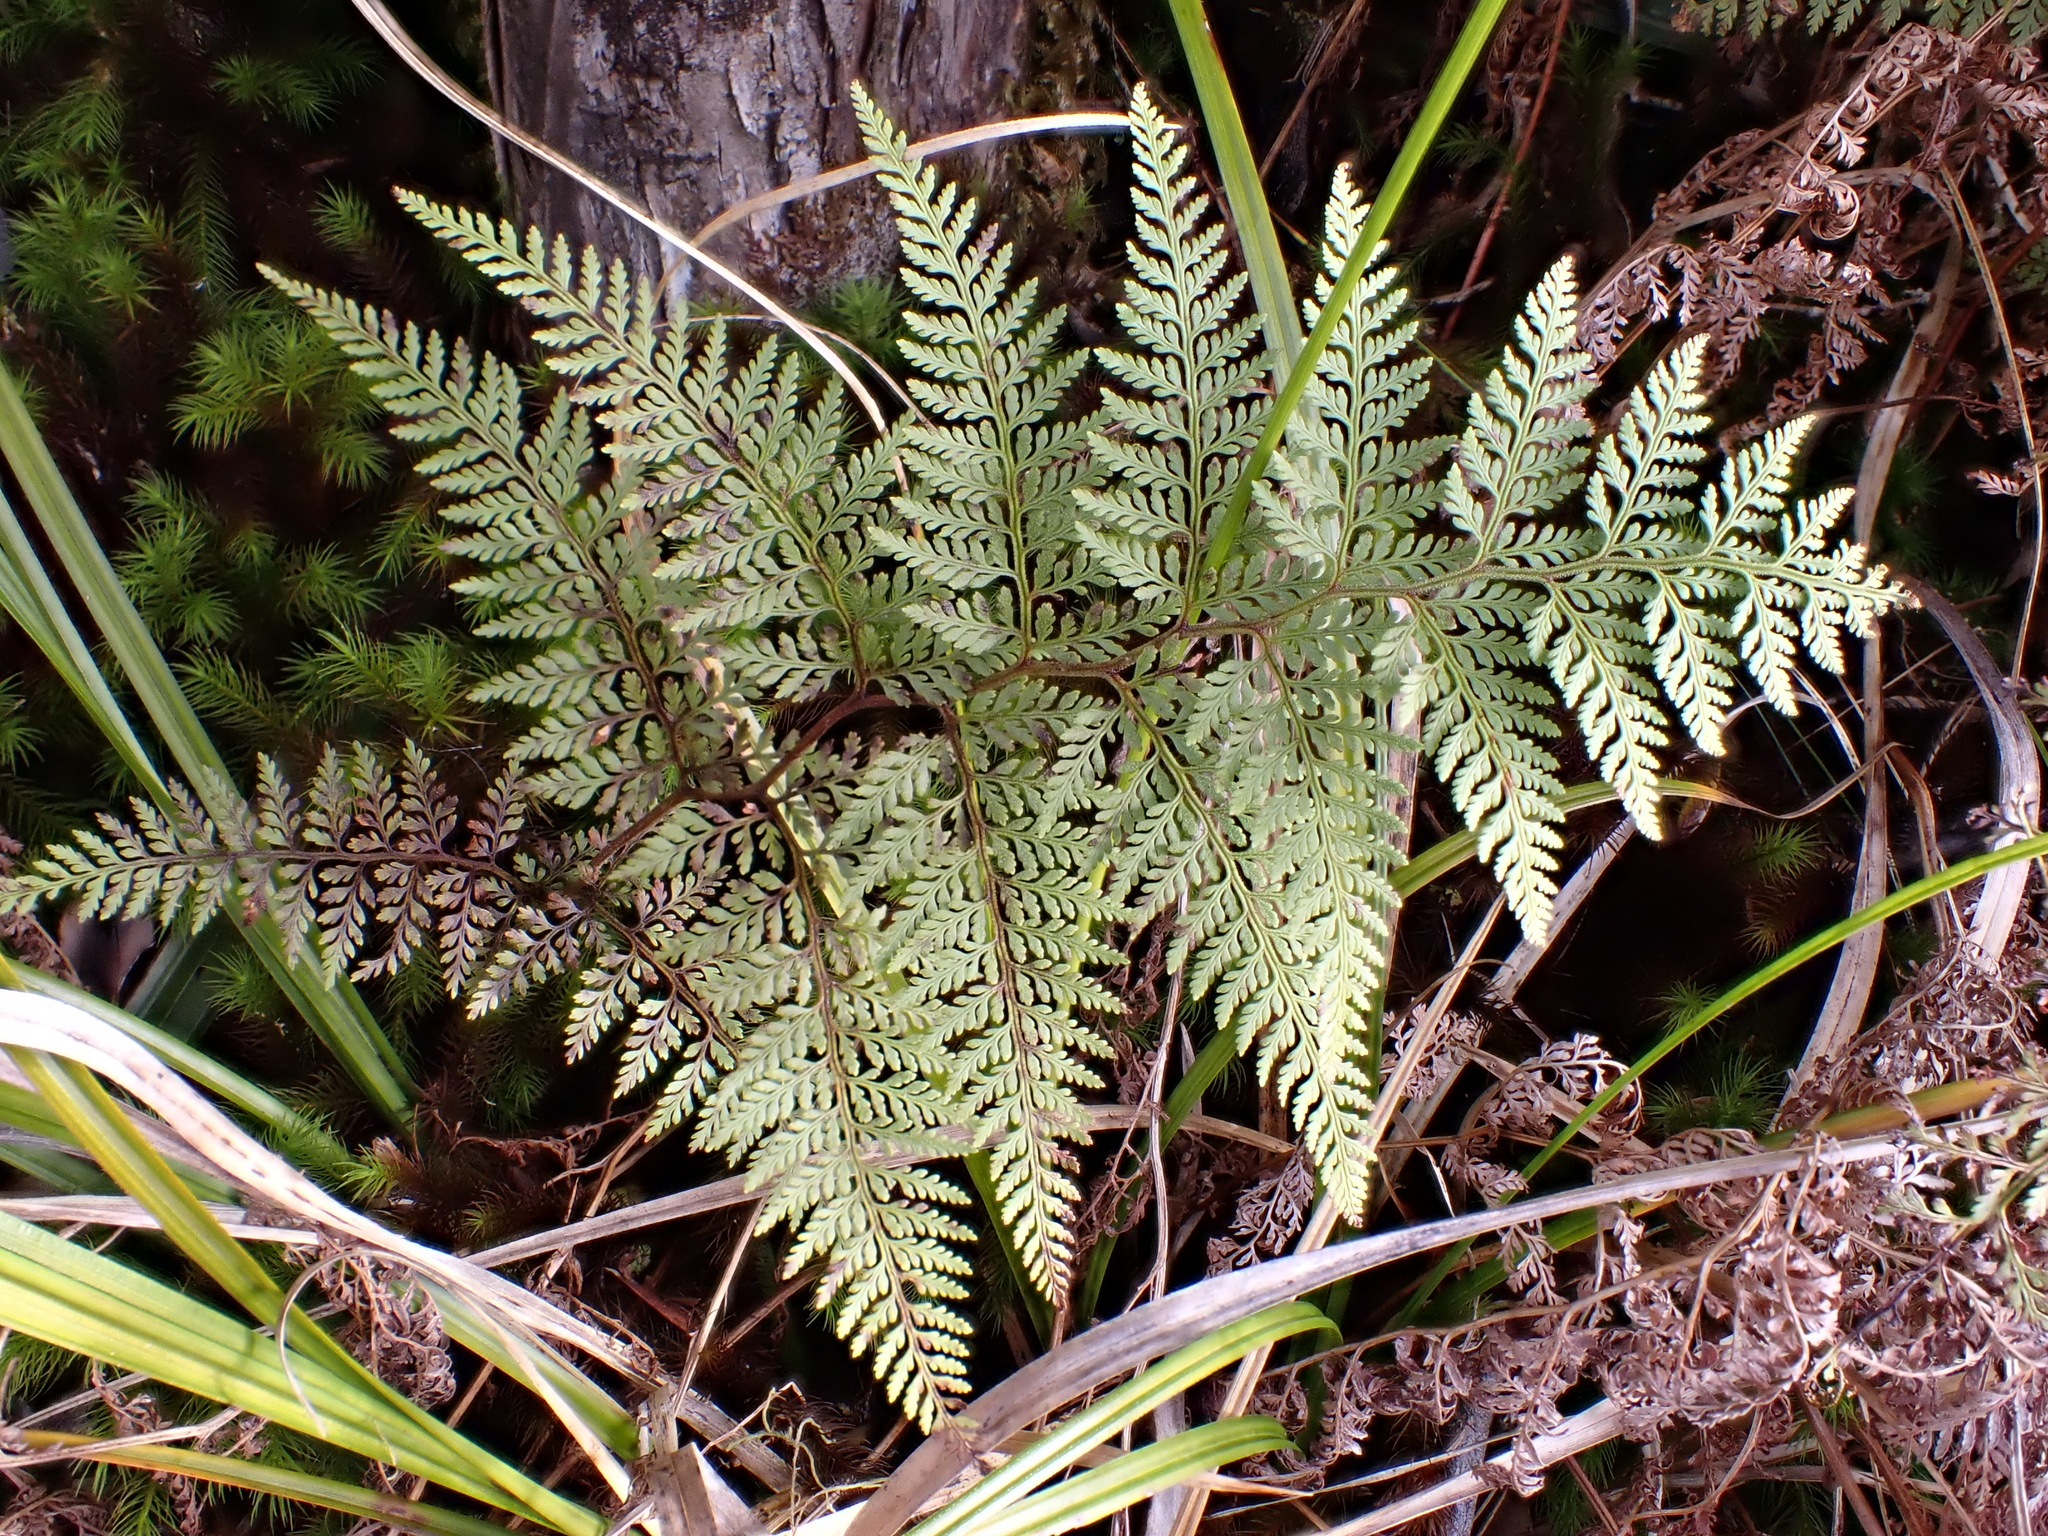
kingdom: Plantae
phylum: Tracheophyta
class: Polypodiopsida
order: Polypodiales
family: Dennstaedtiaceae
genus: Paesia
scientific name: Paesia scaberula
